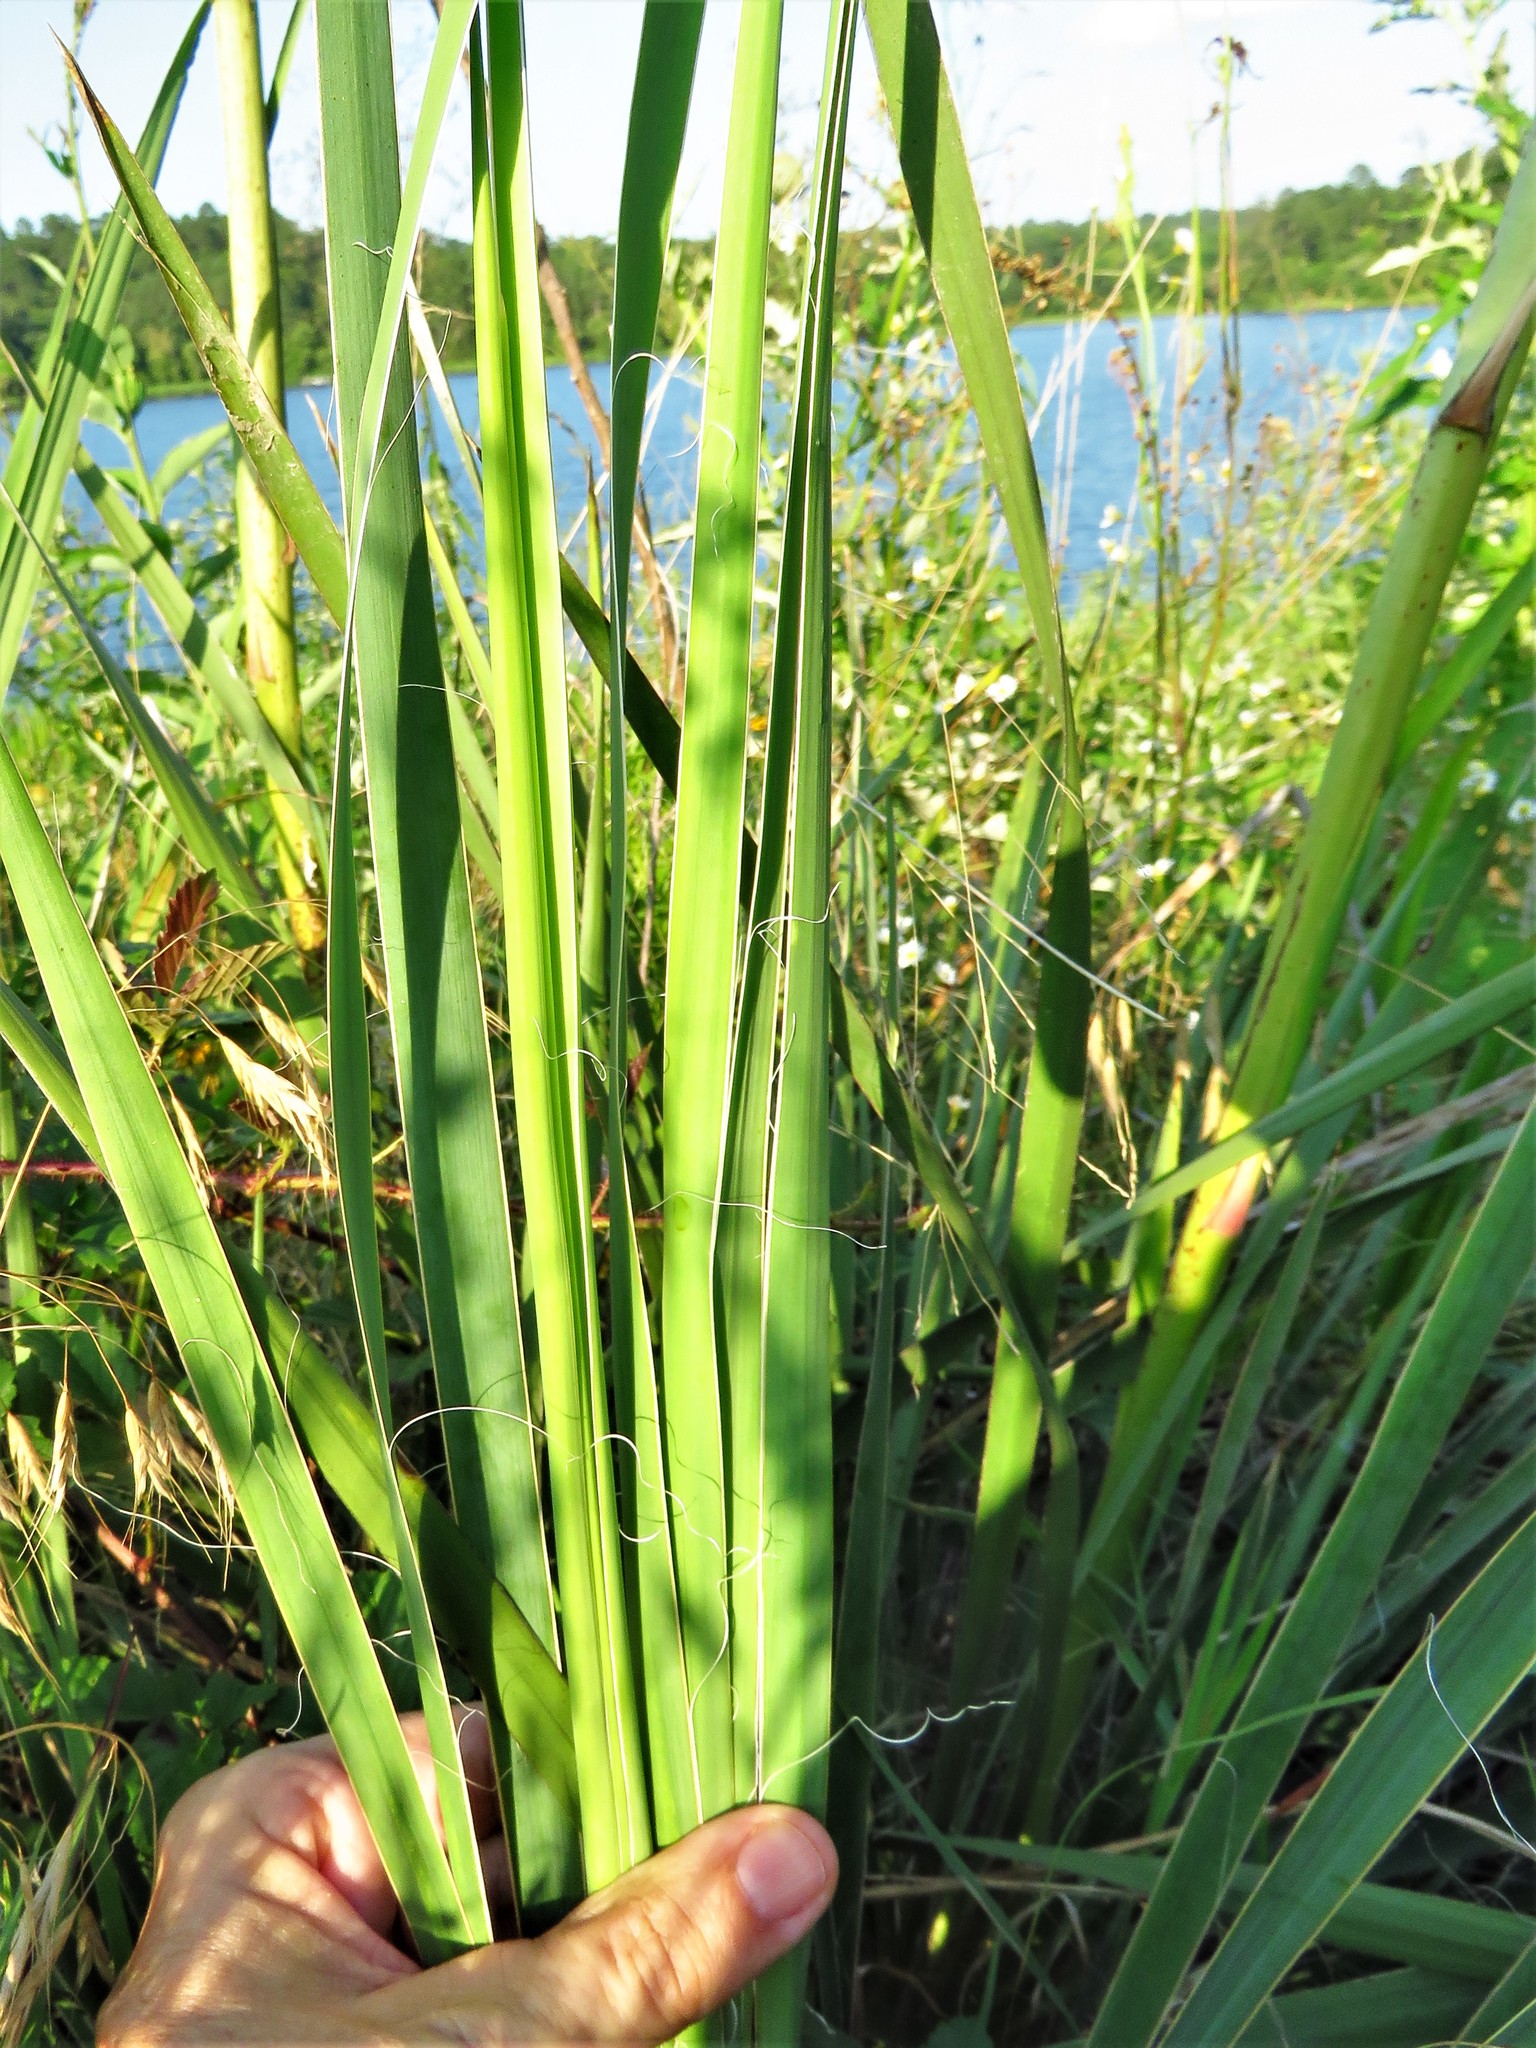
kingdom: Plantae
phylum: Tracheophyta
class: Liliopsida
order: Asparagales
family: Asparagaceae
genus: Yucca
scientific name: Yucca flaccida
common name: Adam's-needle
